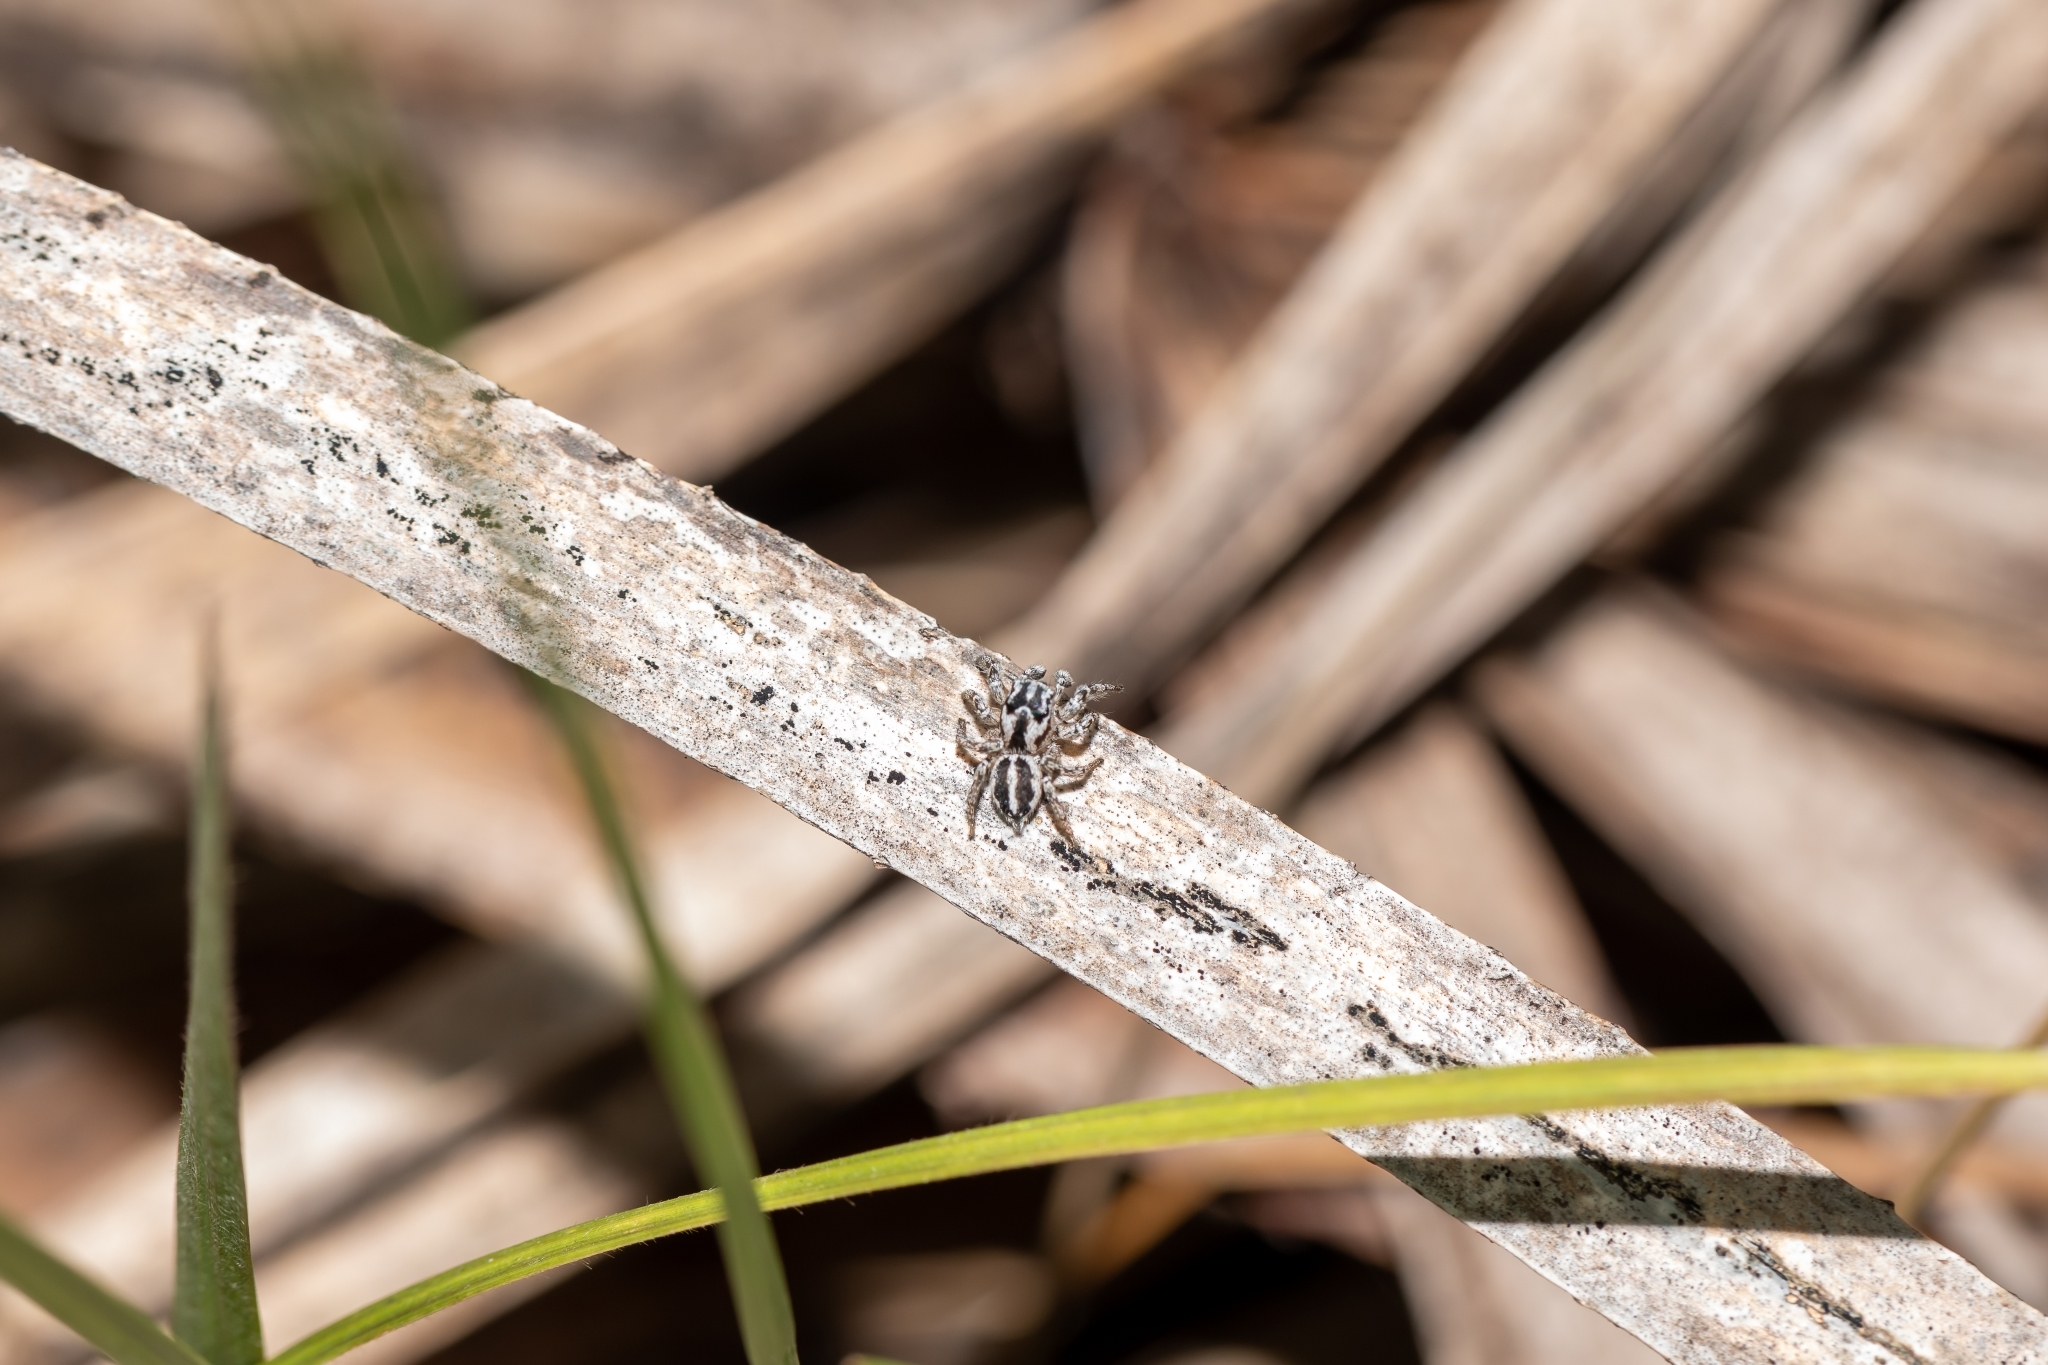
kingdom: Animalia
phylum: Arthropoda
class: Arachnida
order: Araneae
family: Salticidae
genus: Habronattus
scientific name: Habronattus trimaculatus
